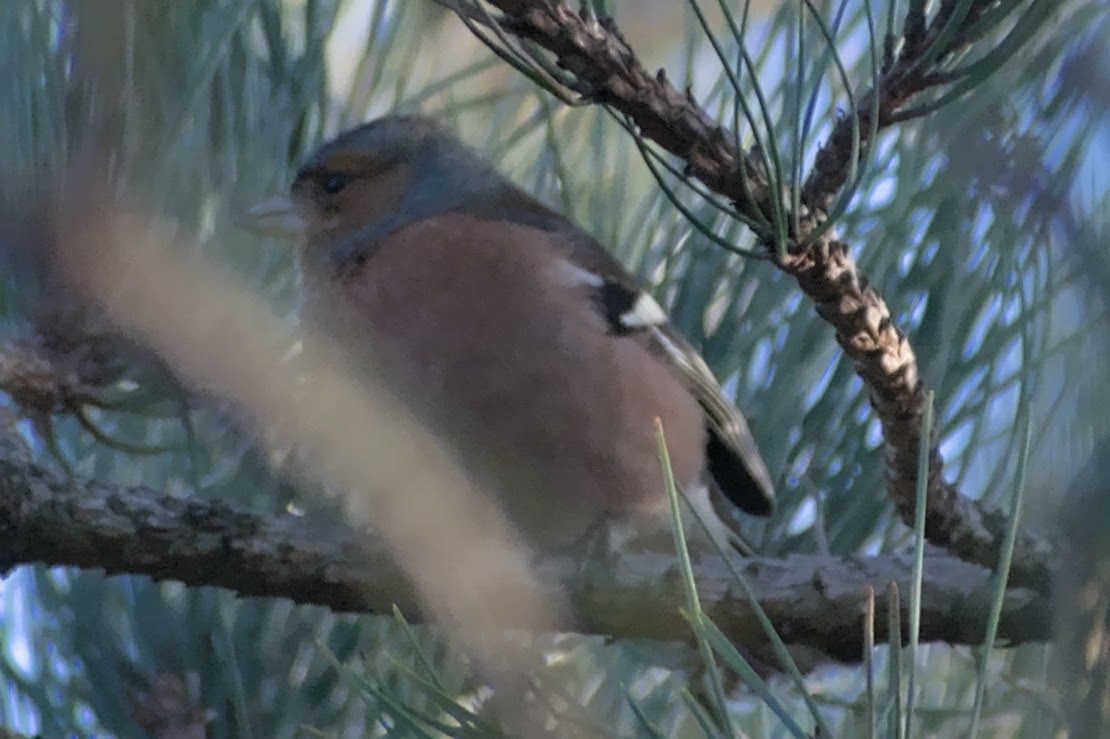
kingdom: Animalia
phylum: Chordata
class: Aves
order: Passeriformes
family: Fringillidae
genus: Fringilla
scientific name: Fringilla coelebs
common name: Common chaffinch
